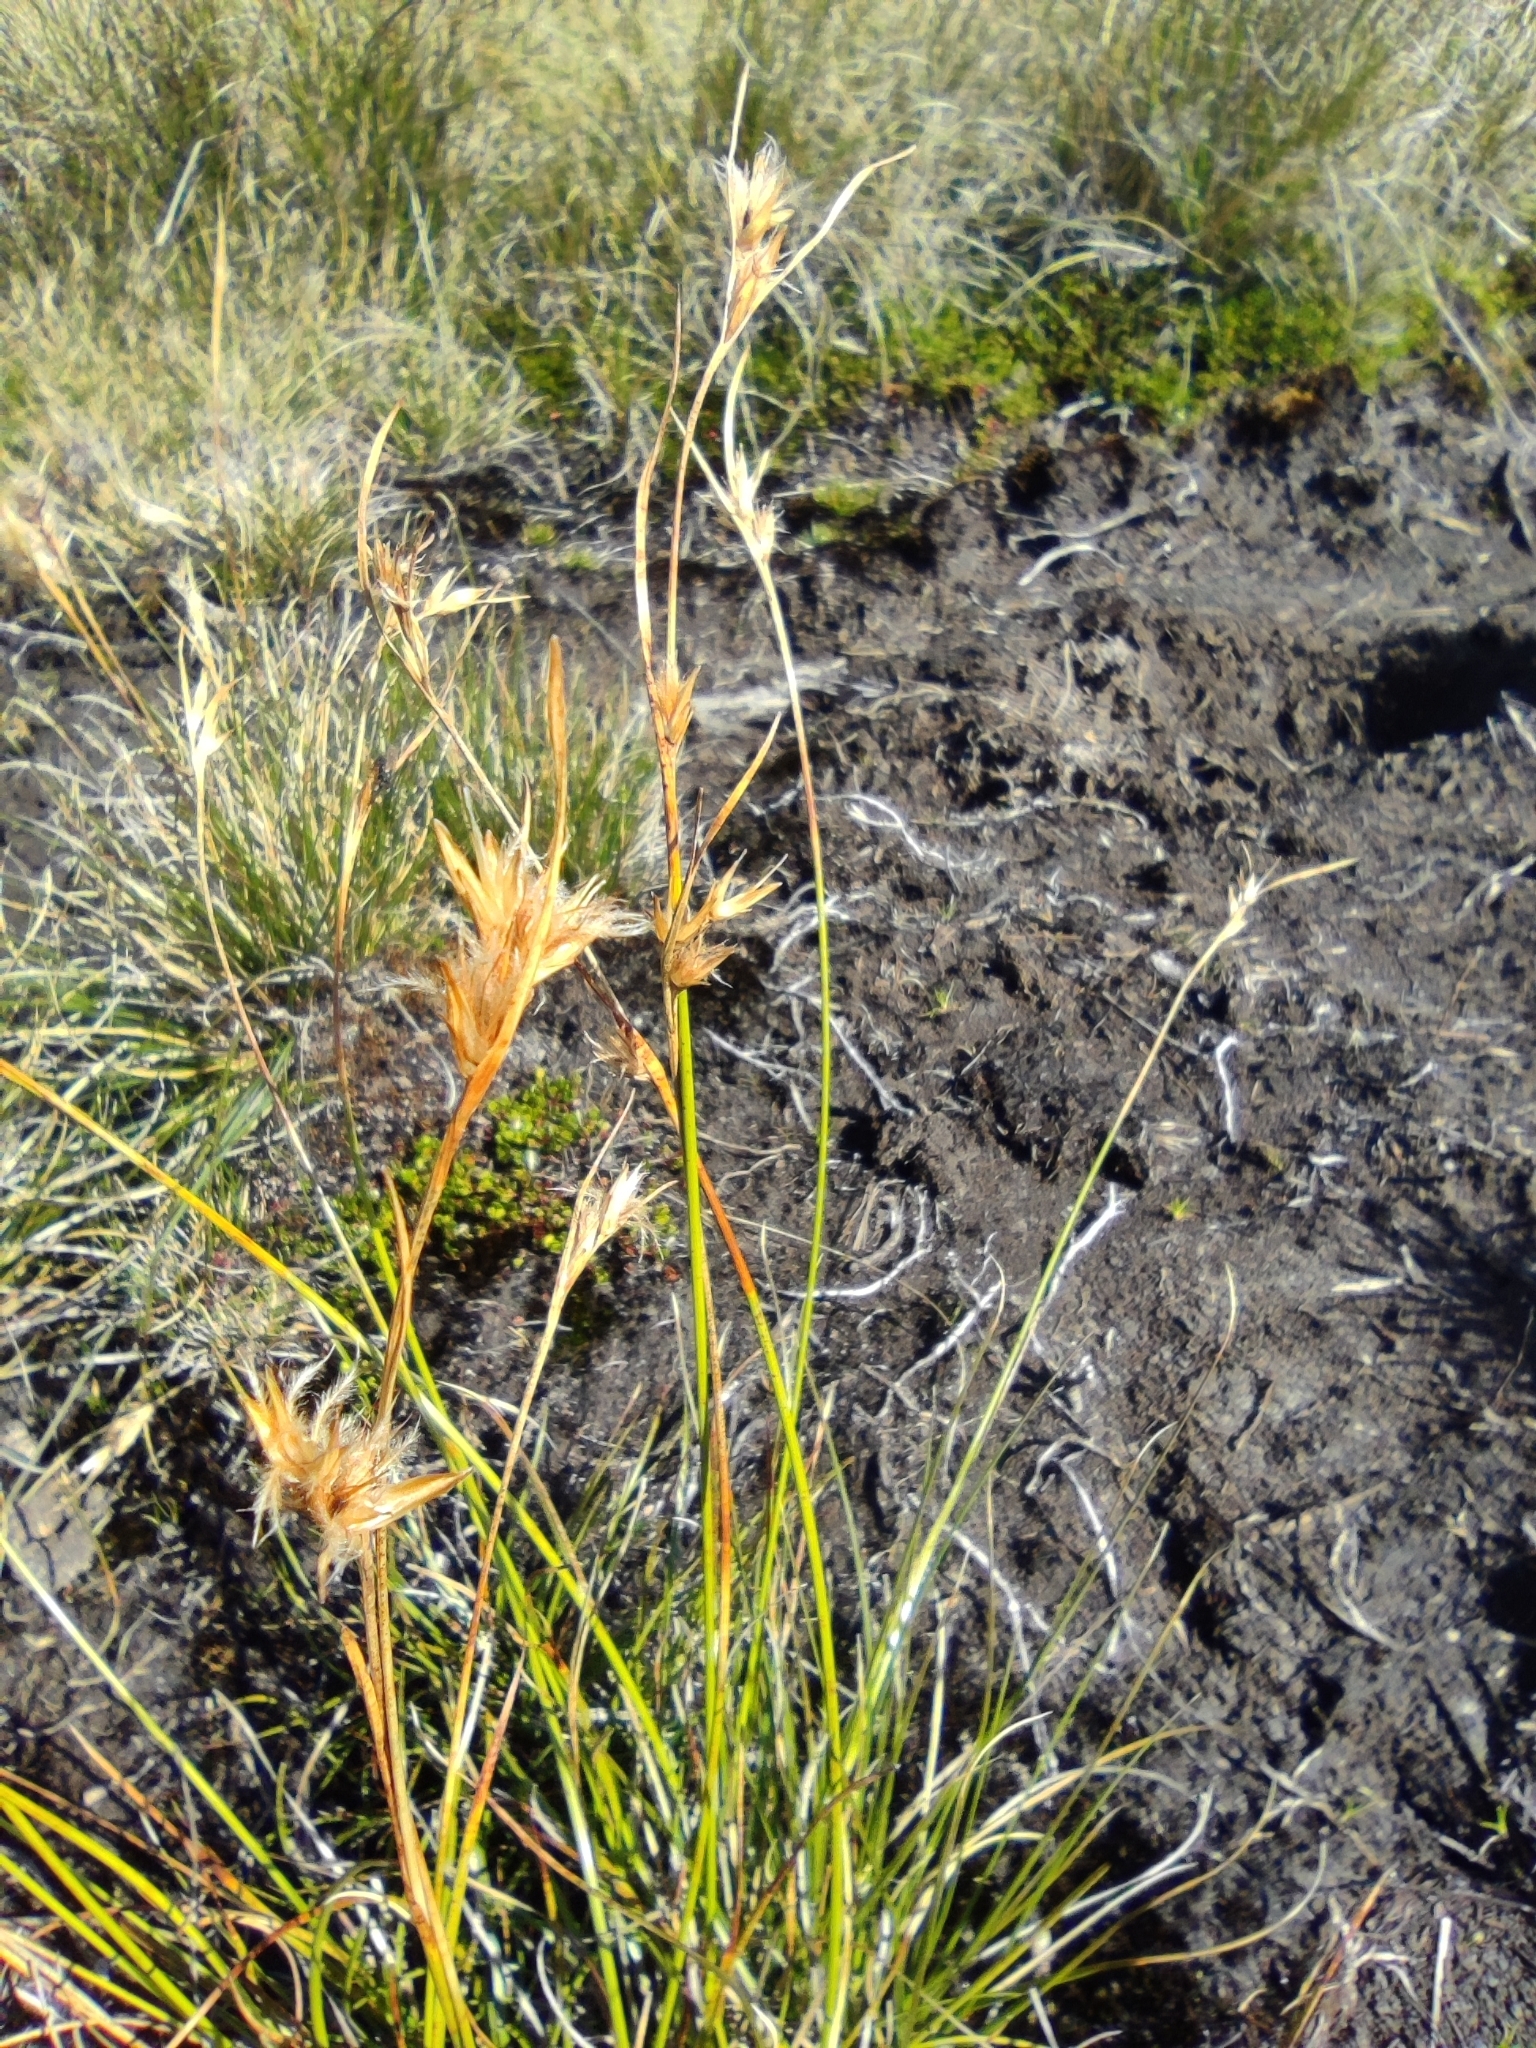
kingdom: Plantae
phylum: Tracheophyta
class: Liliopsida
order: Poales
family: Cyperaceae
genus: Carpha
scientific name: Carpha schoenoides
